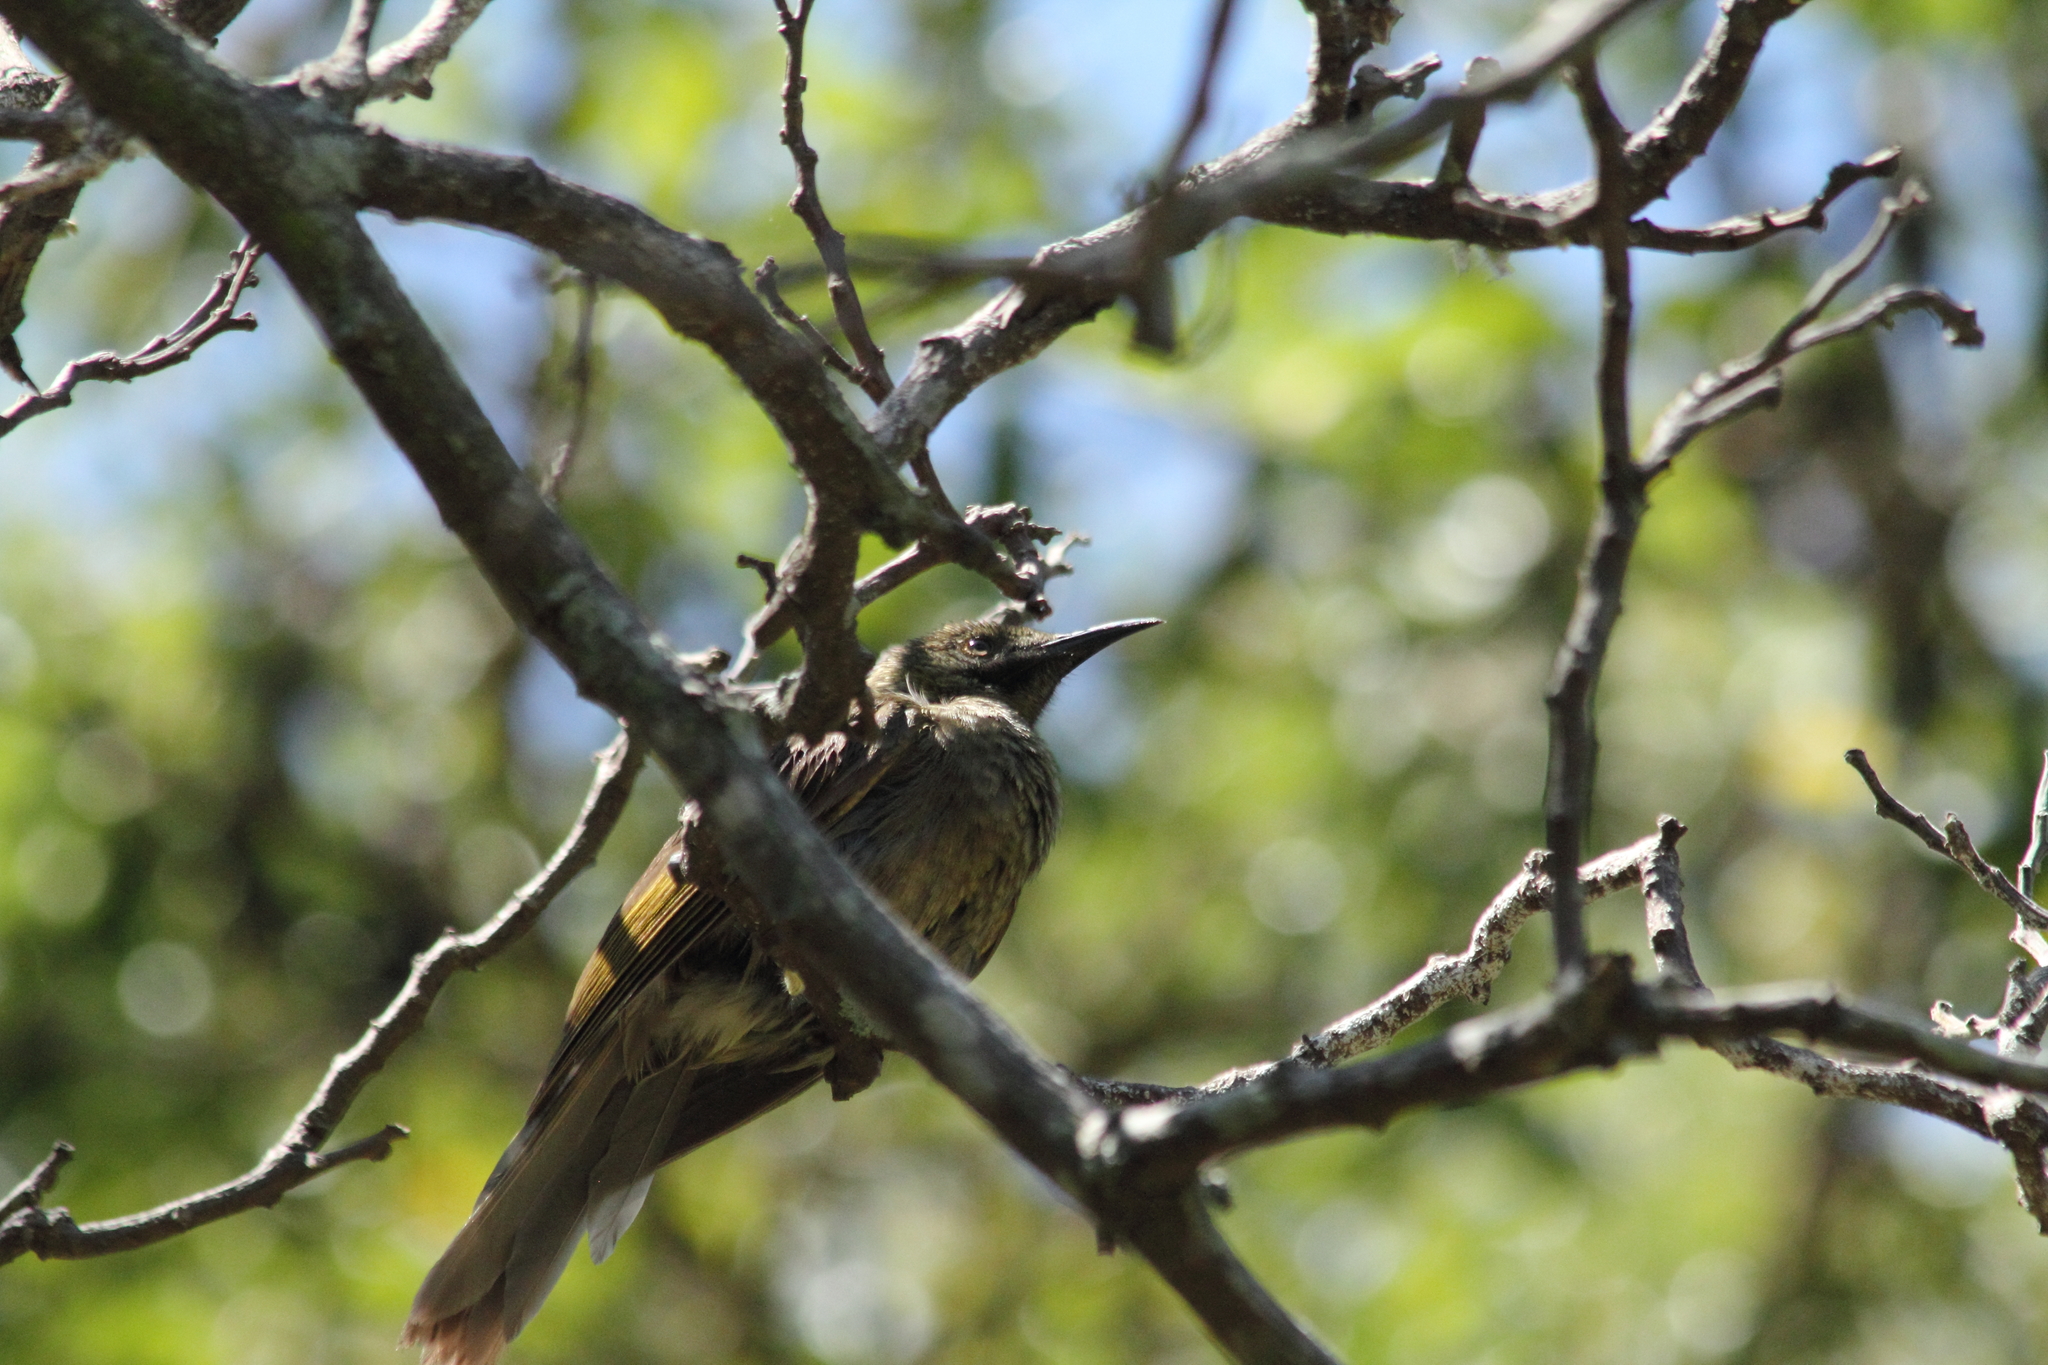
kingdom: Animalia
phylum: Chordata
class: Aves
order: Passeriformes
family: Meliphagidae
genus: Foulehaio
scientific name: Foulehaio procerior
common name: Kikau
